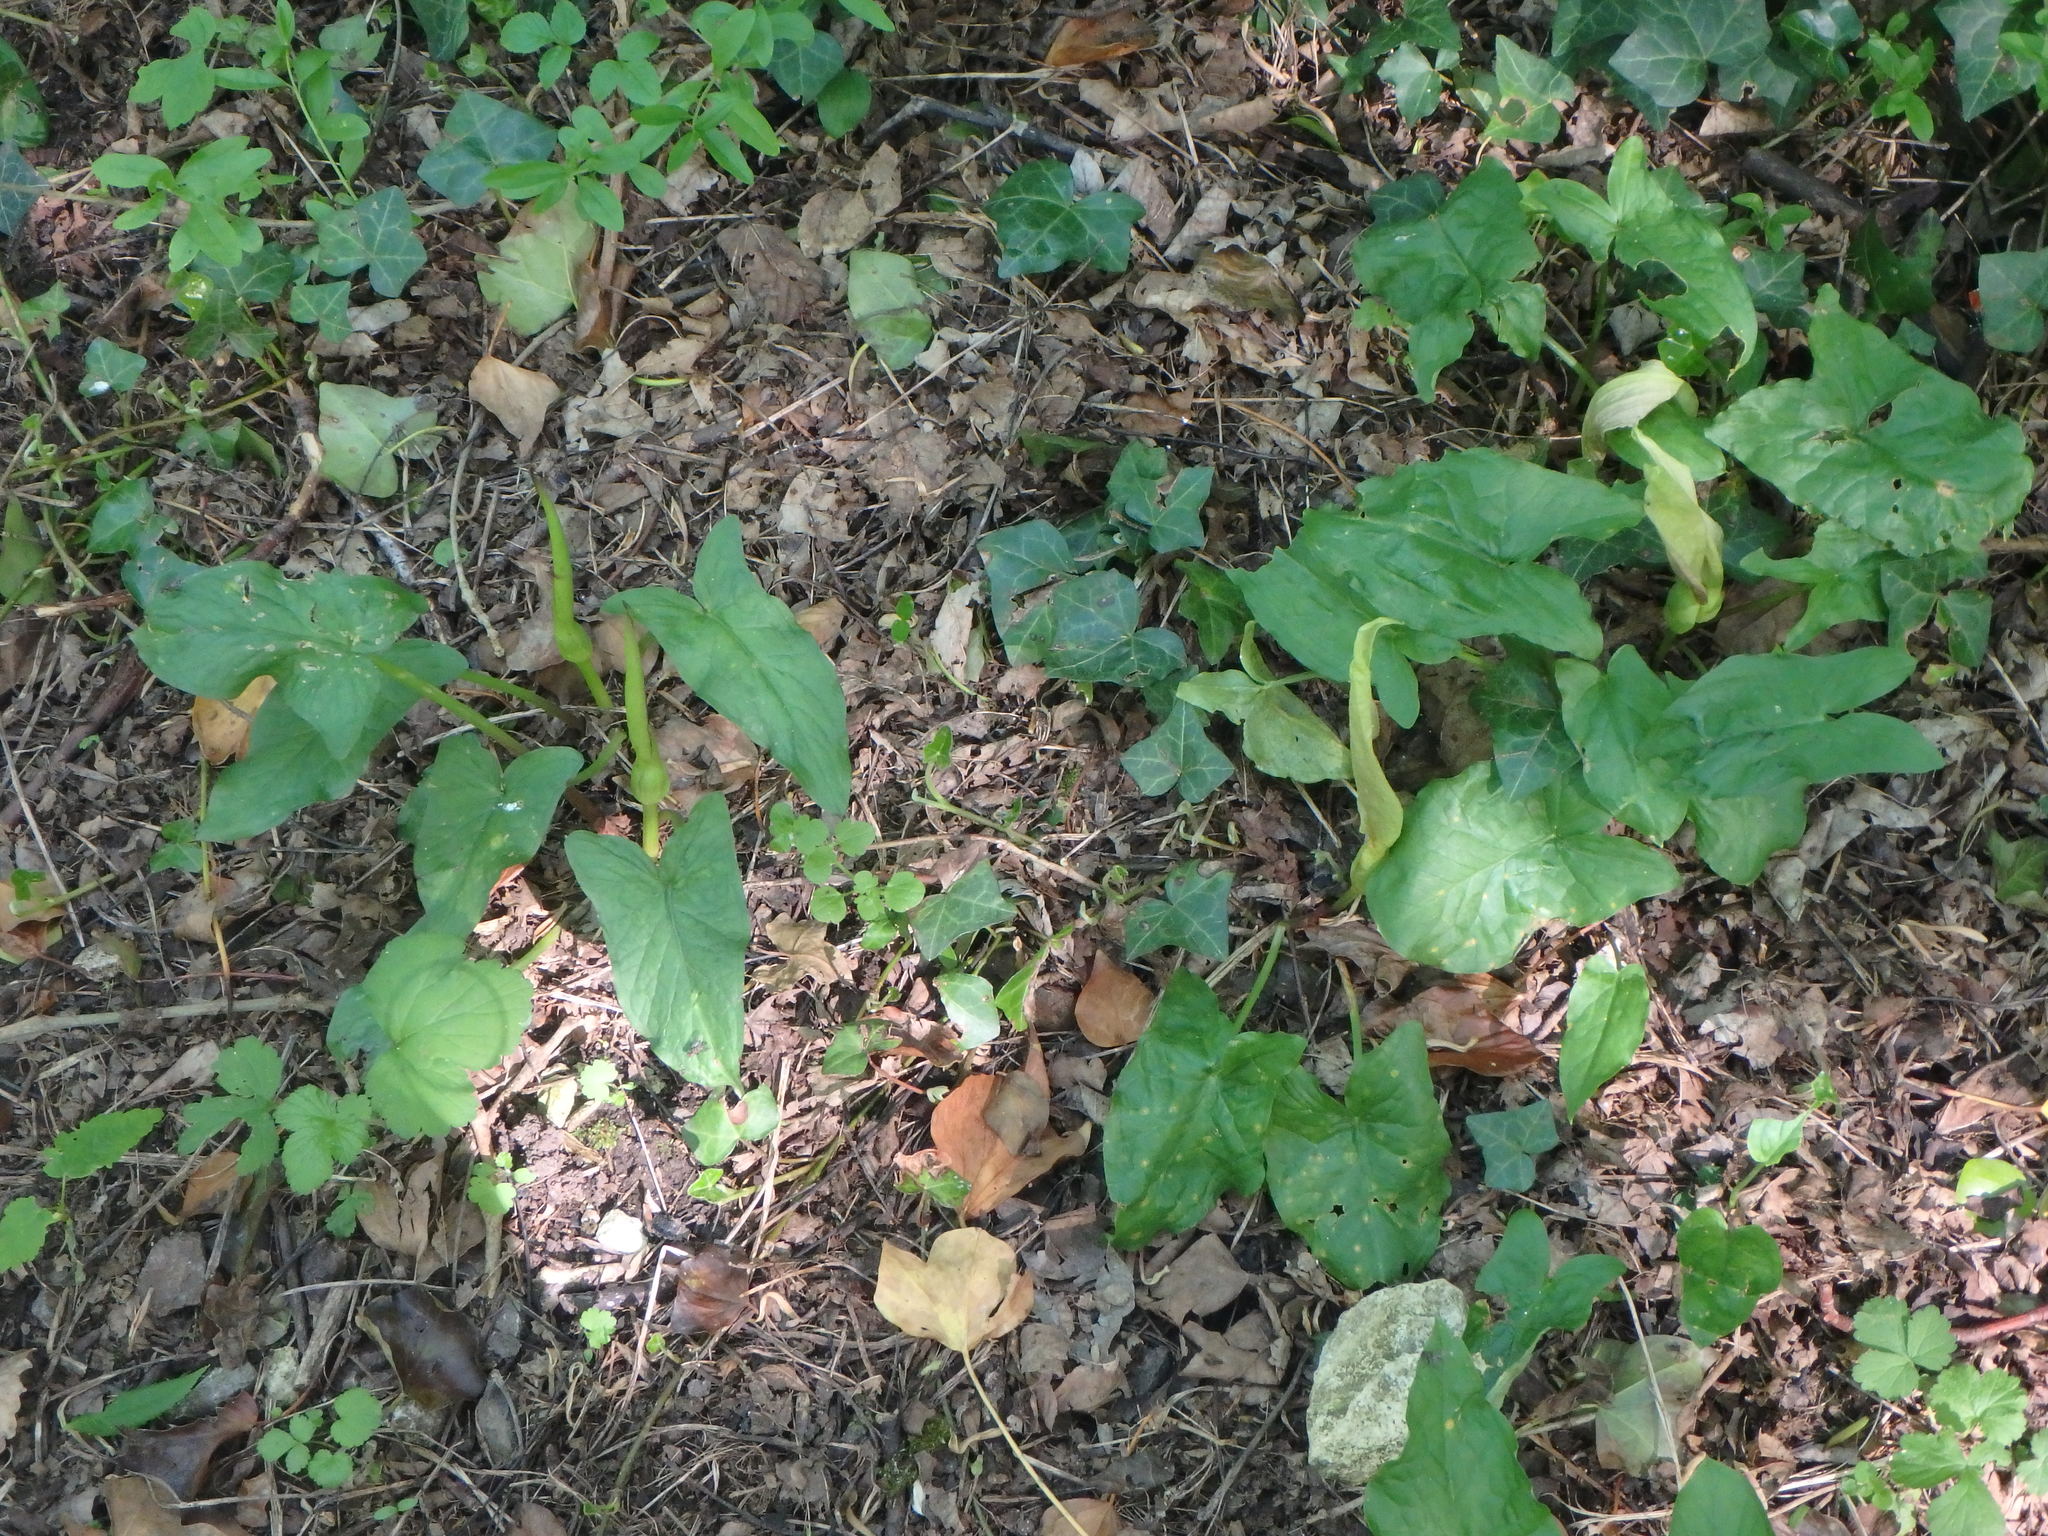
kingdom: Plantae
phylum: Tracheophyta
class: Liliopsida
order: Alismatales
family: Araceae
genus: Arum
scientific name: Arum maculatum
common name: Lords-and-ladies
